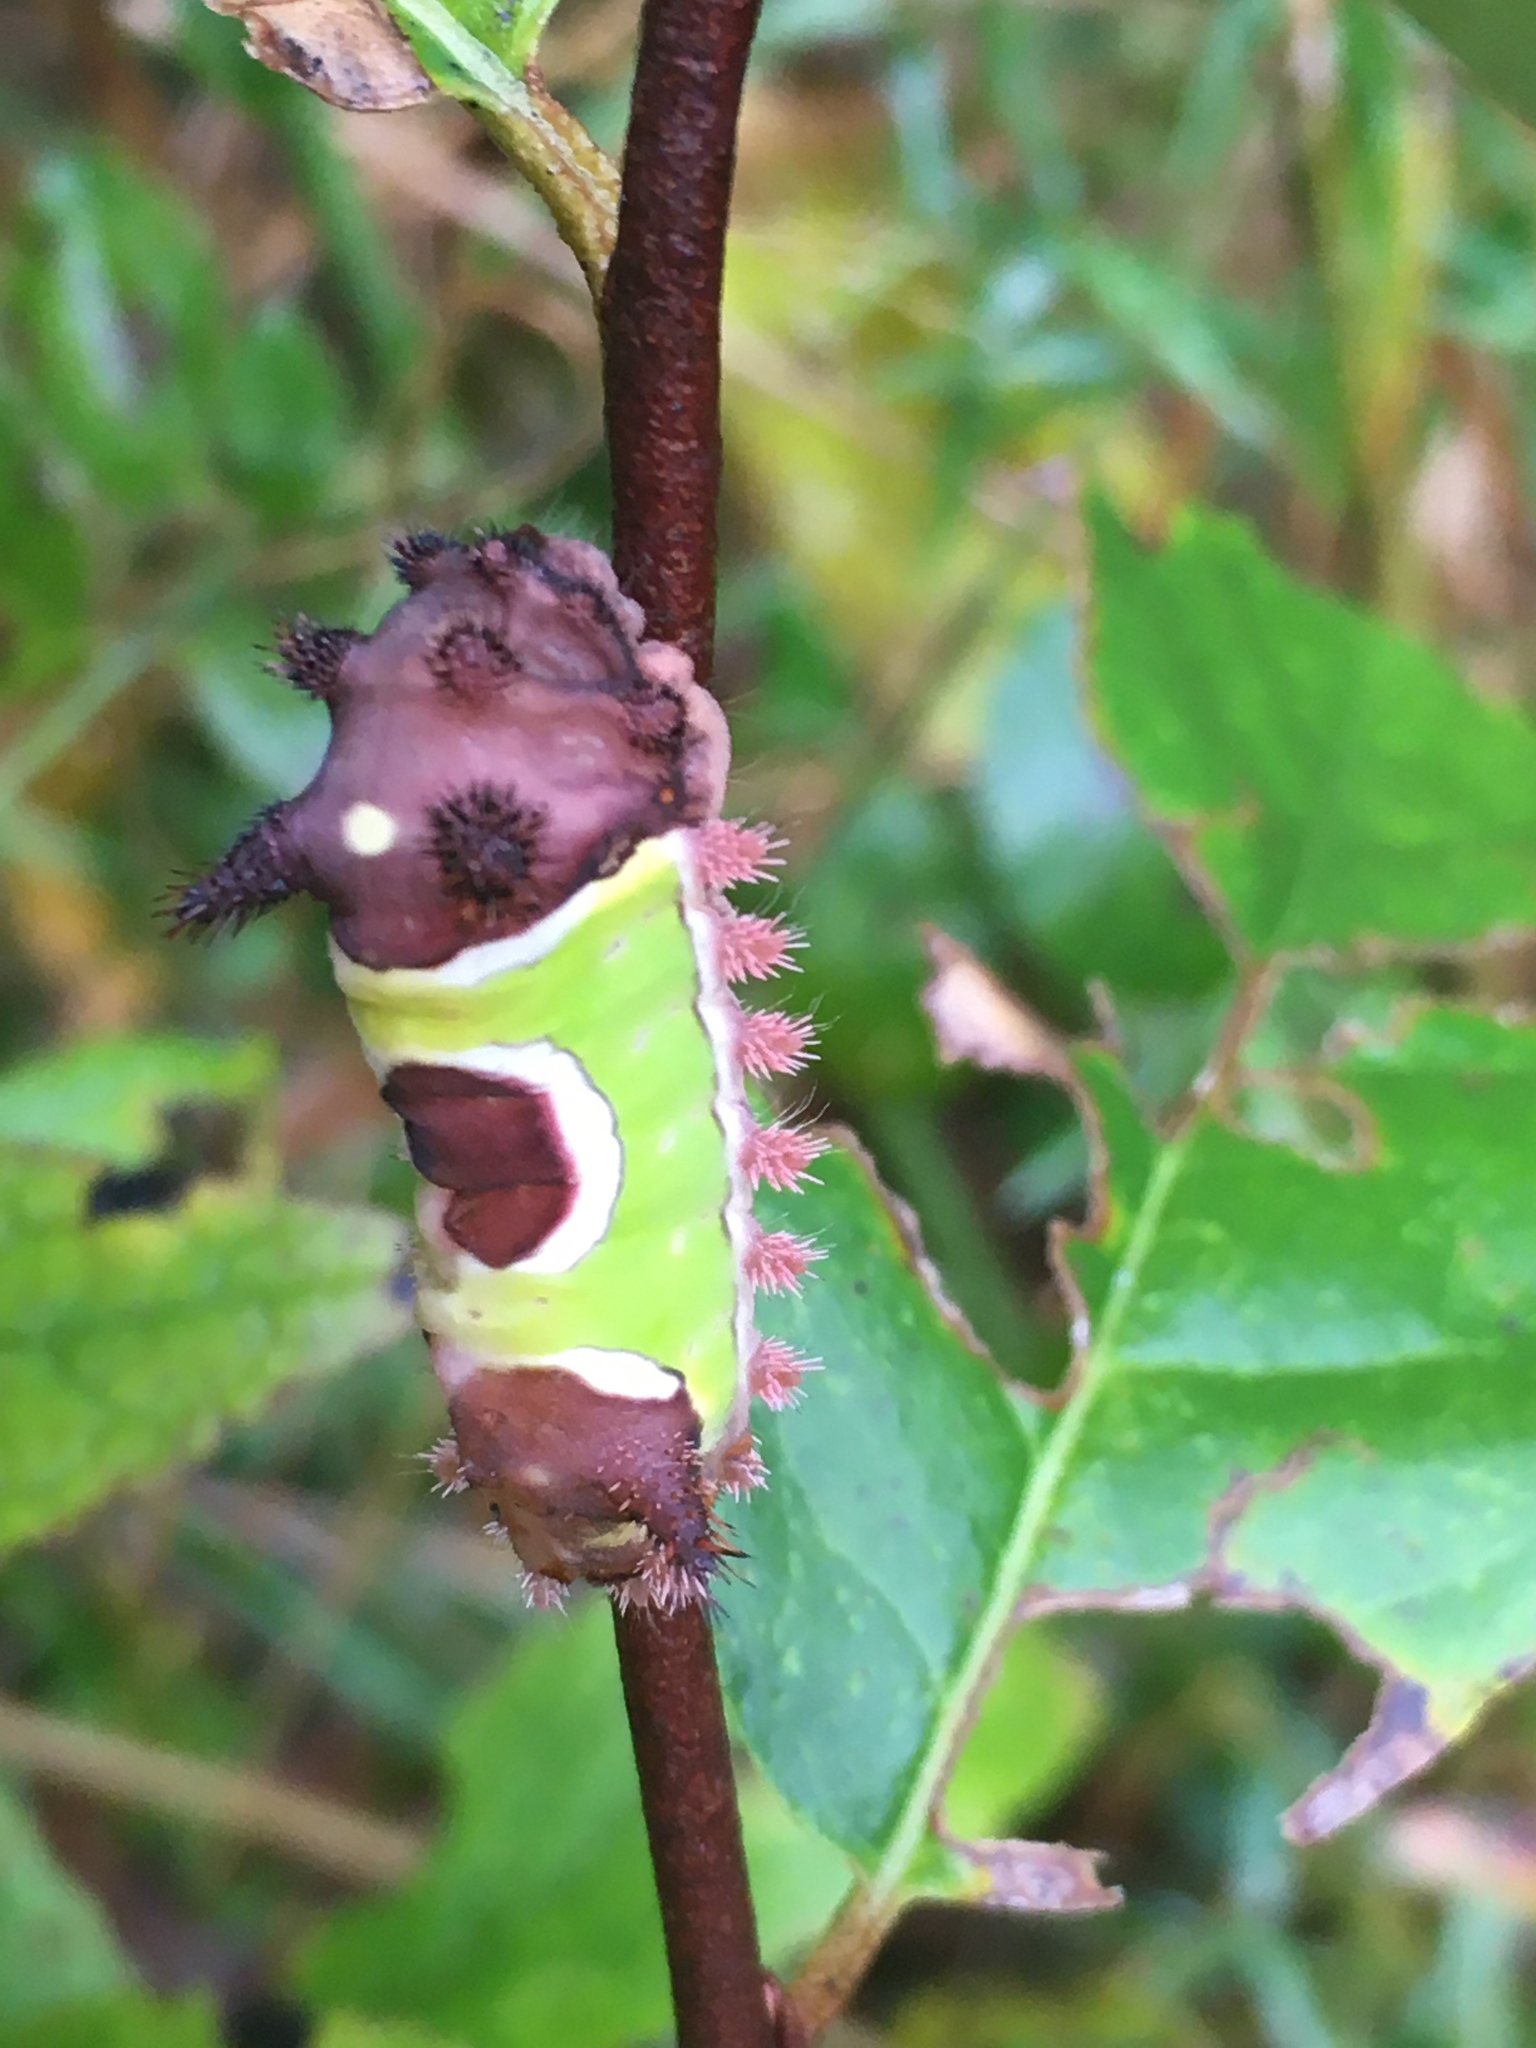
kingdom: Animalia
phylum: Arthropoda
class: Insecta
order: Lepidoptera
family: Limacodidae
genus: Acharia
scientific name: Acharia stimulea
